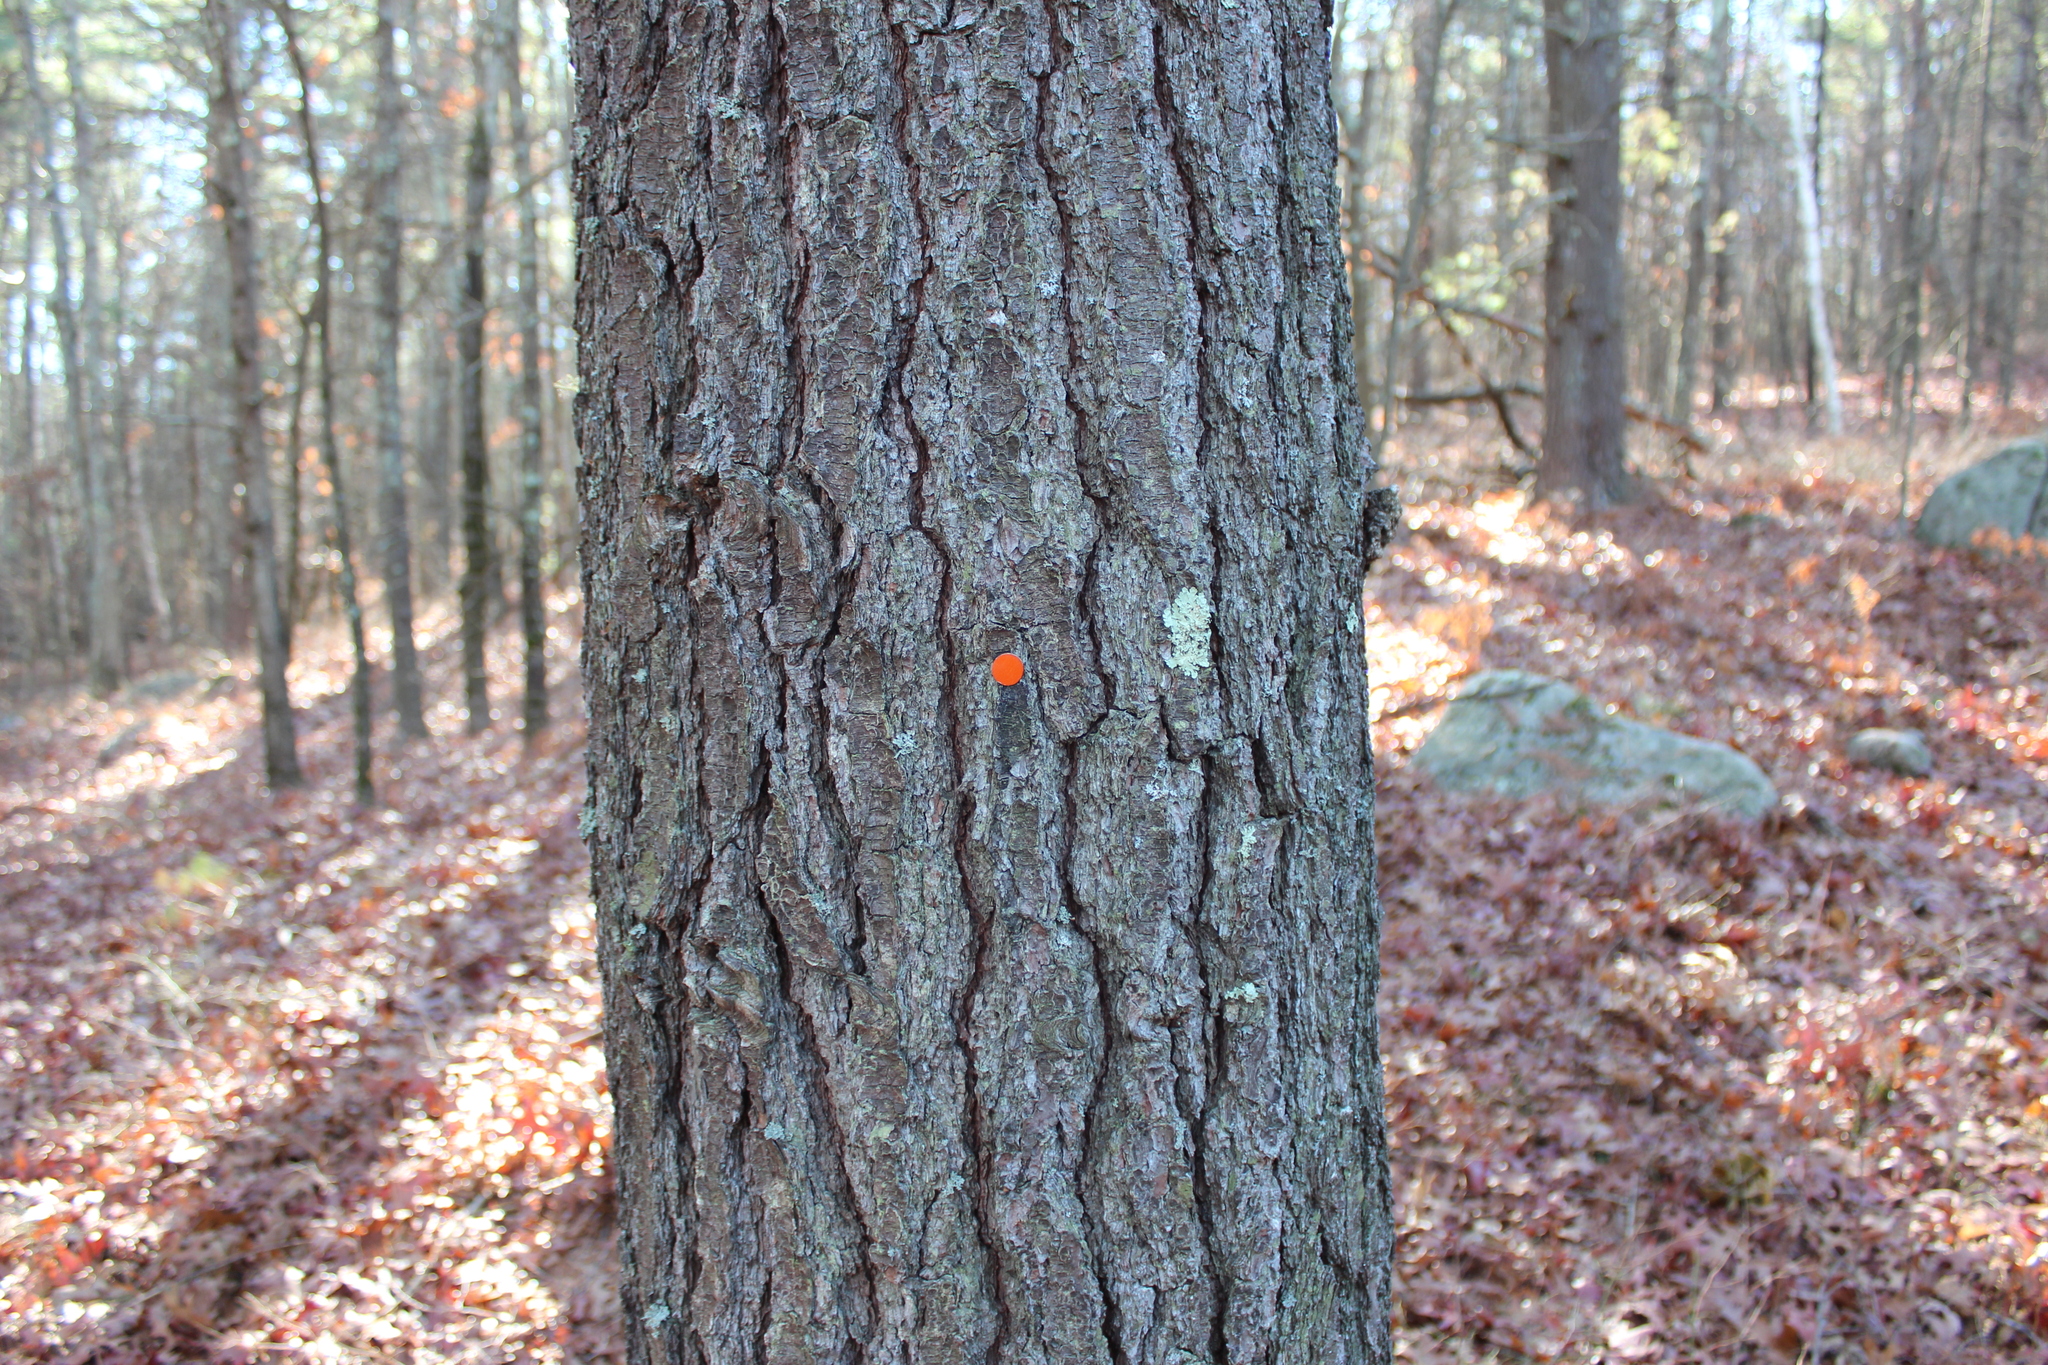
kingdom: Plantae
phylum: Tracheophyta
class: Pinopsida
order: Pinales
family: Pinaceae
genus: Pinus
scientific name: Pinus strobus
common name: Weymouth pine
